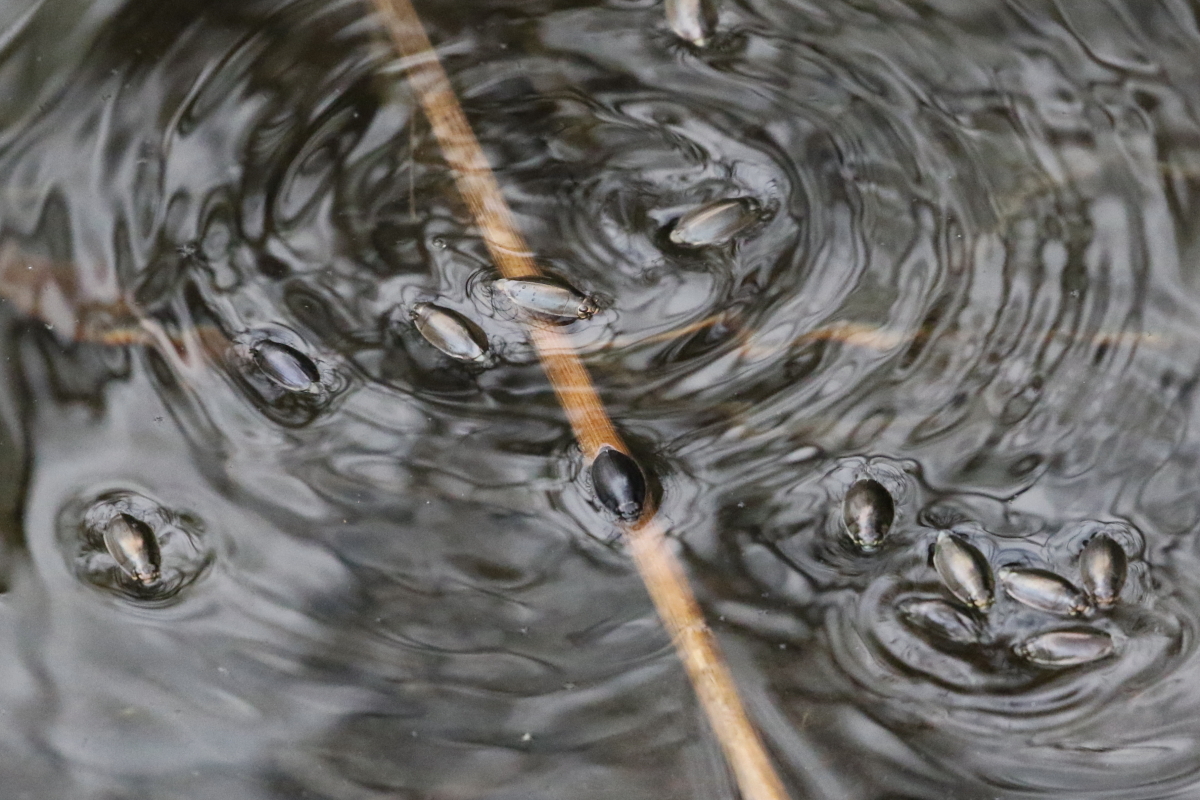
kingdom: Animalia
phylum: Arthropoda
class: Insecta
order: Coleoptera
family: Gyrinidae
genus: Dineutus
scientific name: Dineutus
